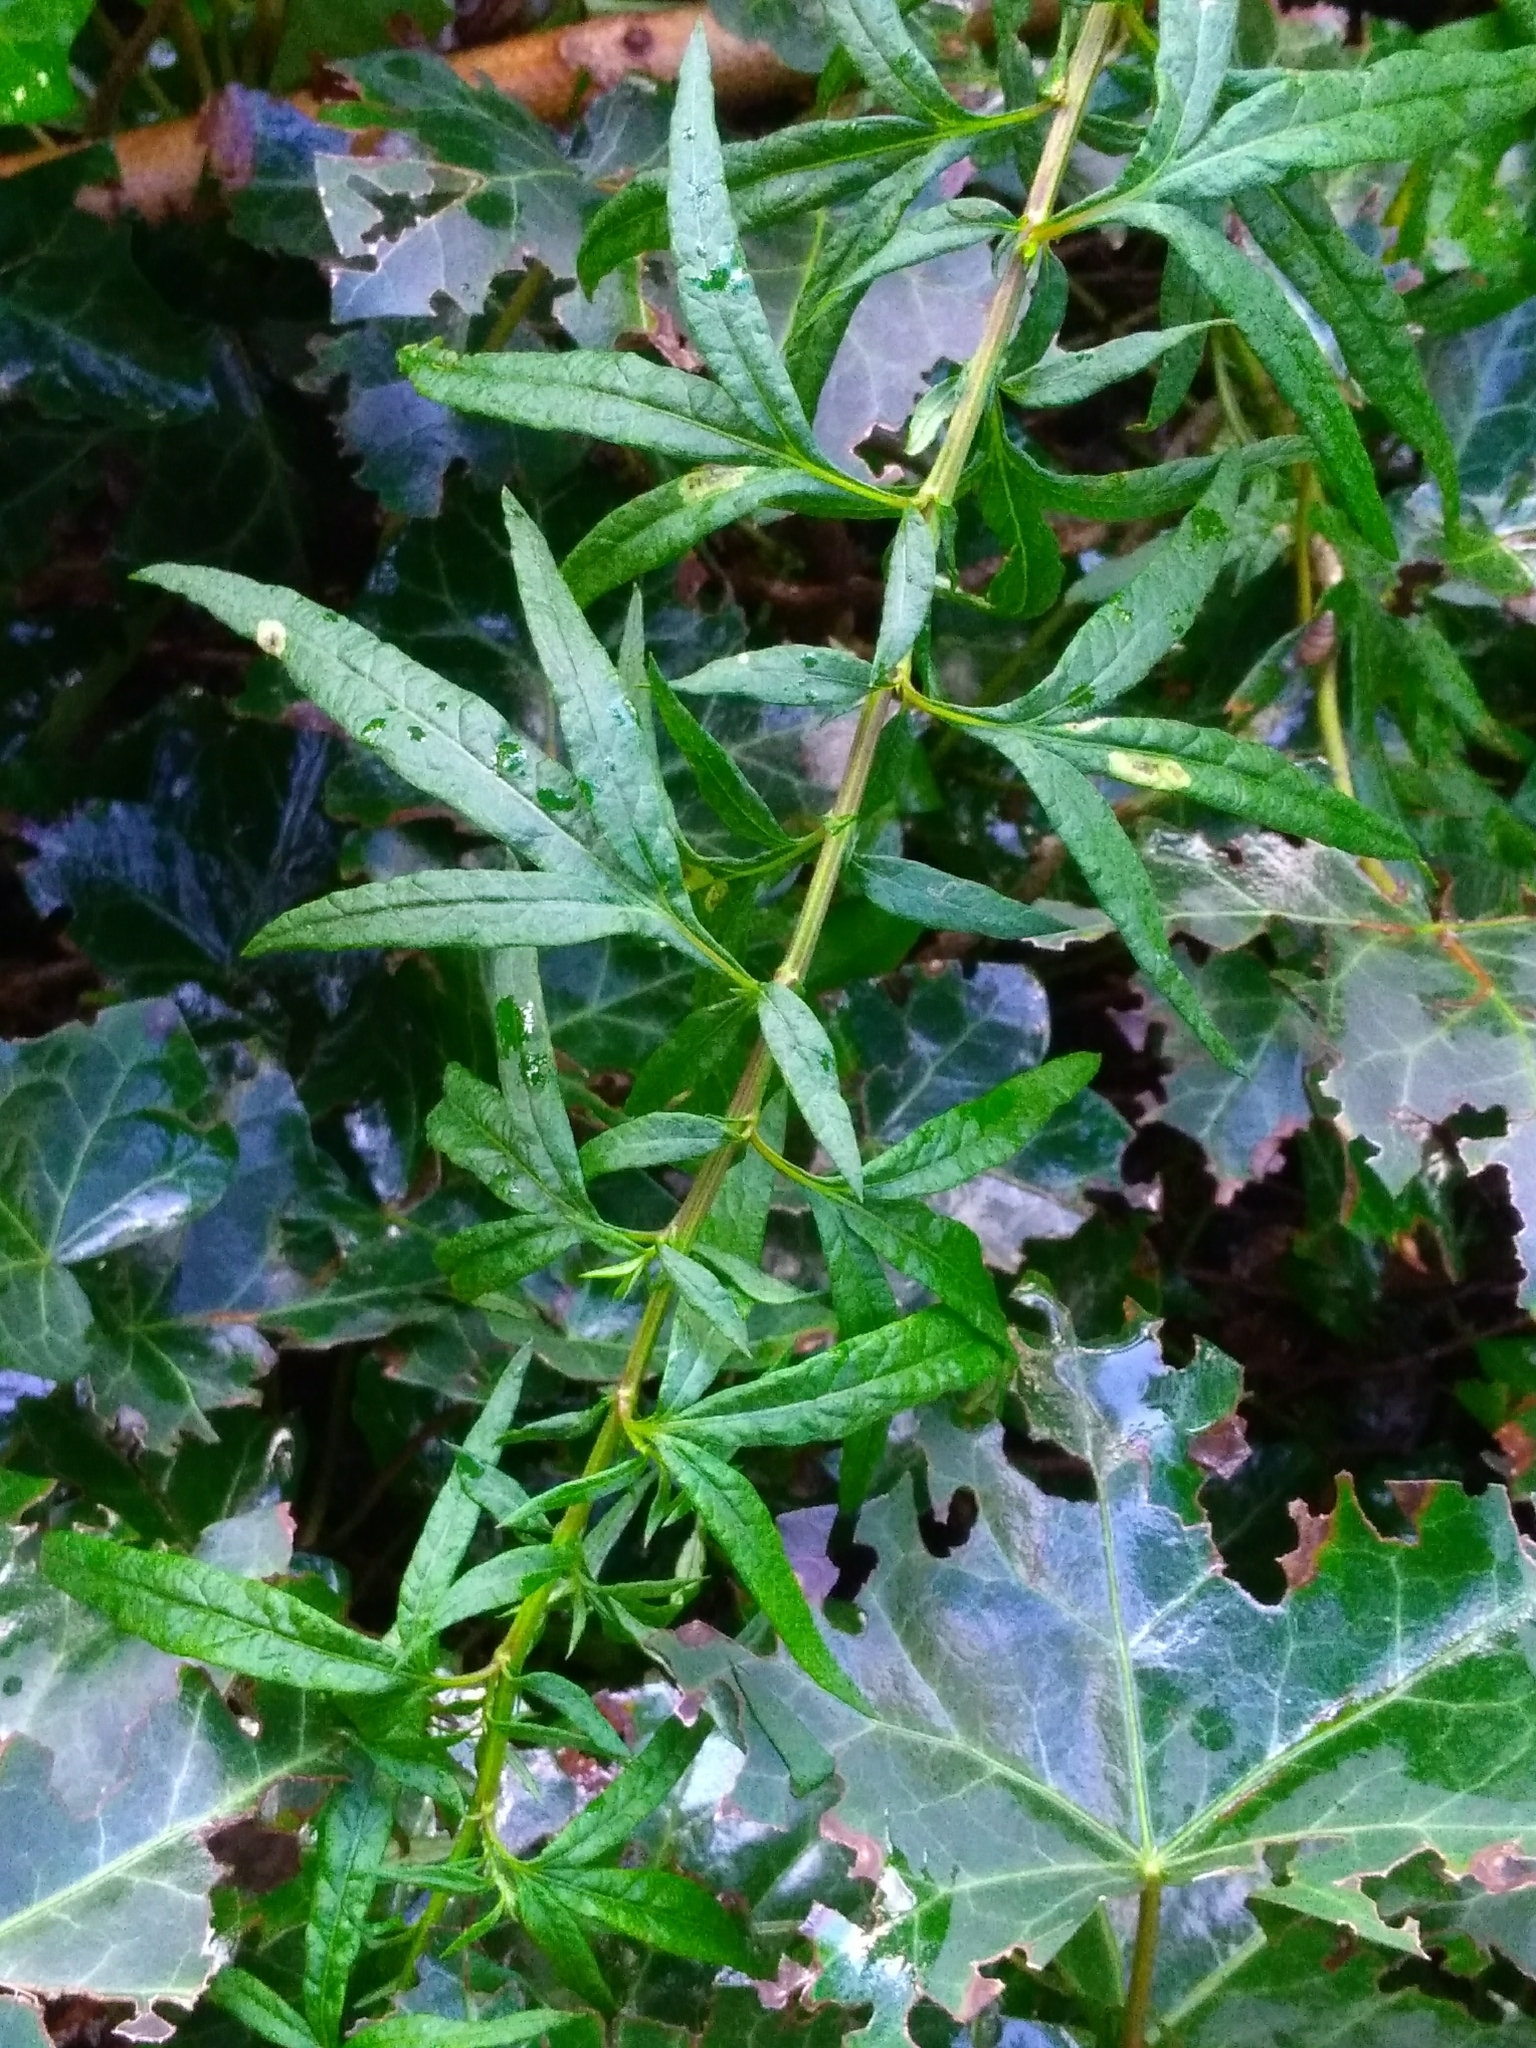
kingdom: Plantae
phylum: Tracheophyta
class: Magnoliopsida
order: Asterales
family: Asteraceae
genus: Artemisia
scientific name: Artemisia verlotiorum
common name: Chinese mugwort
